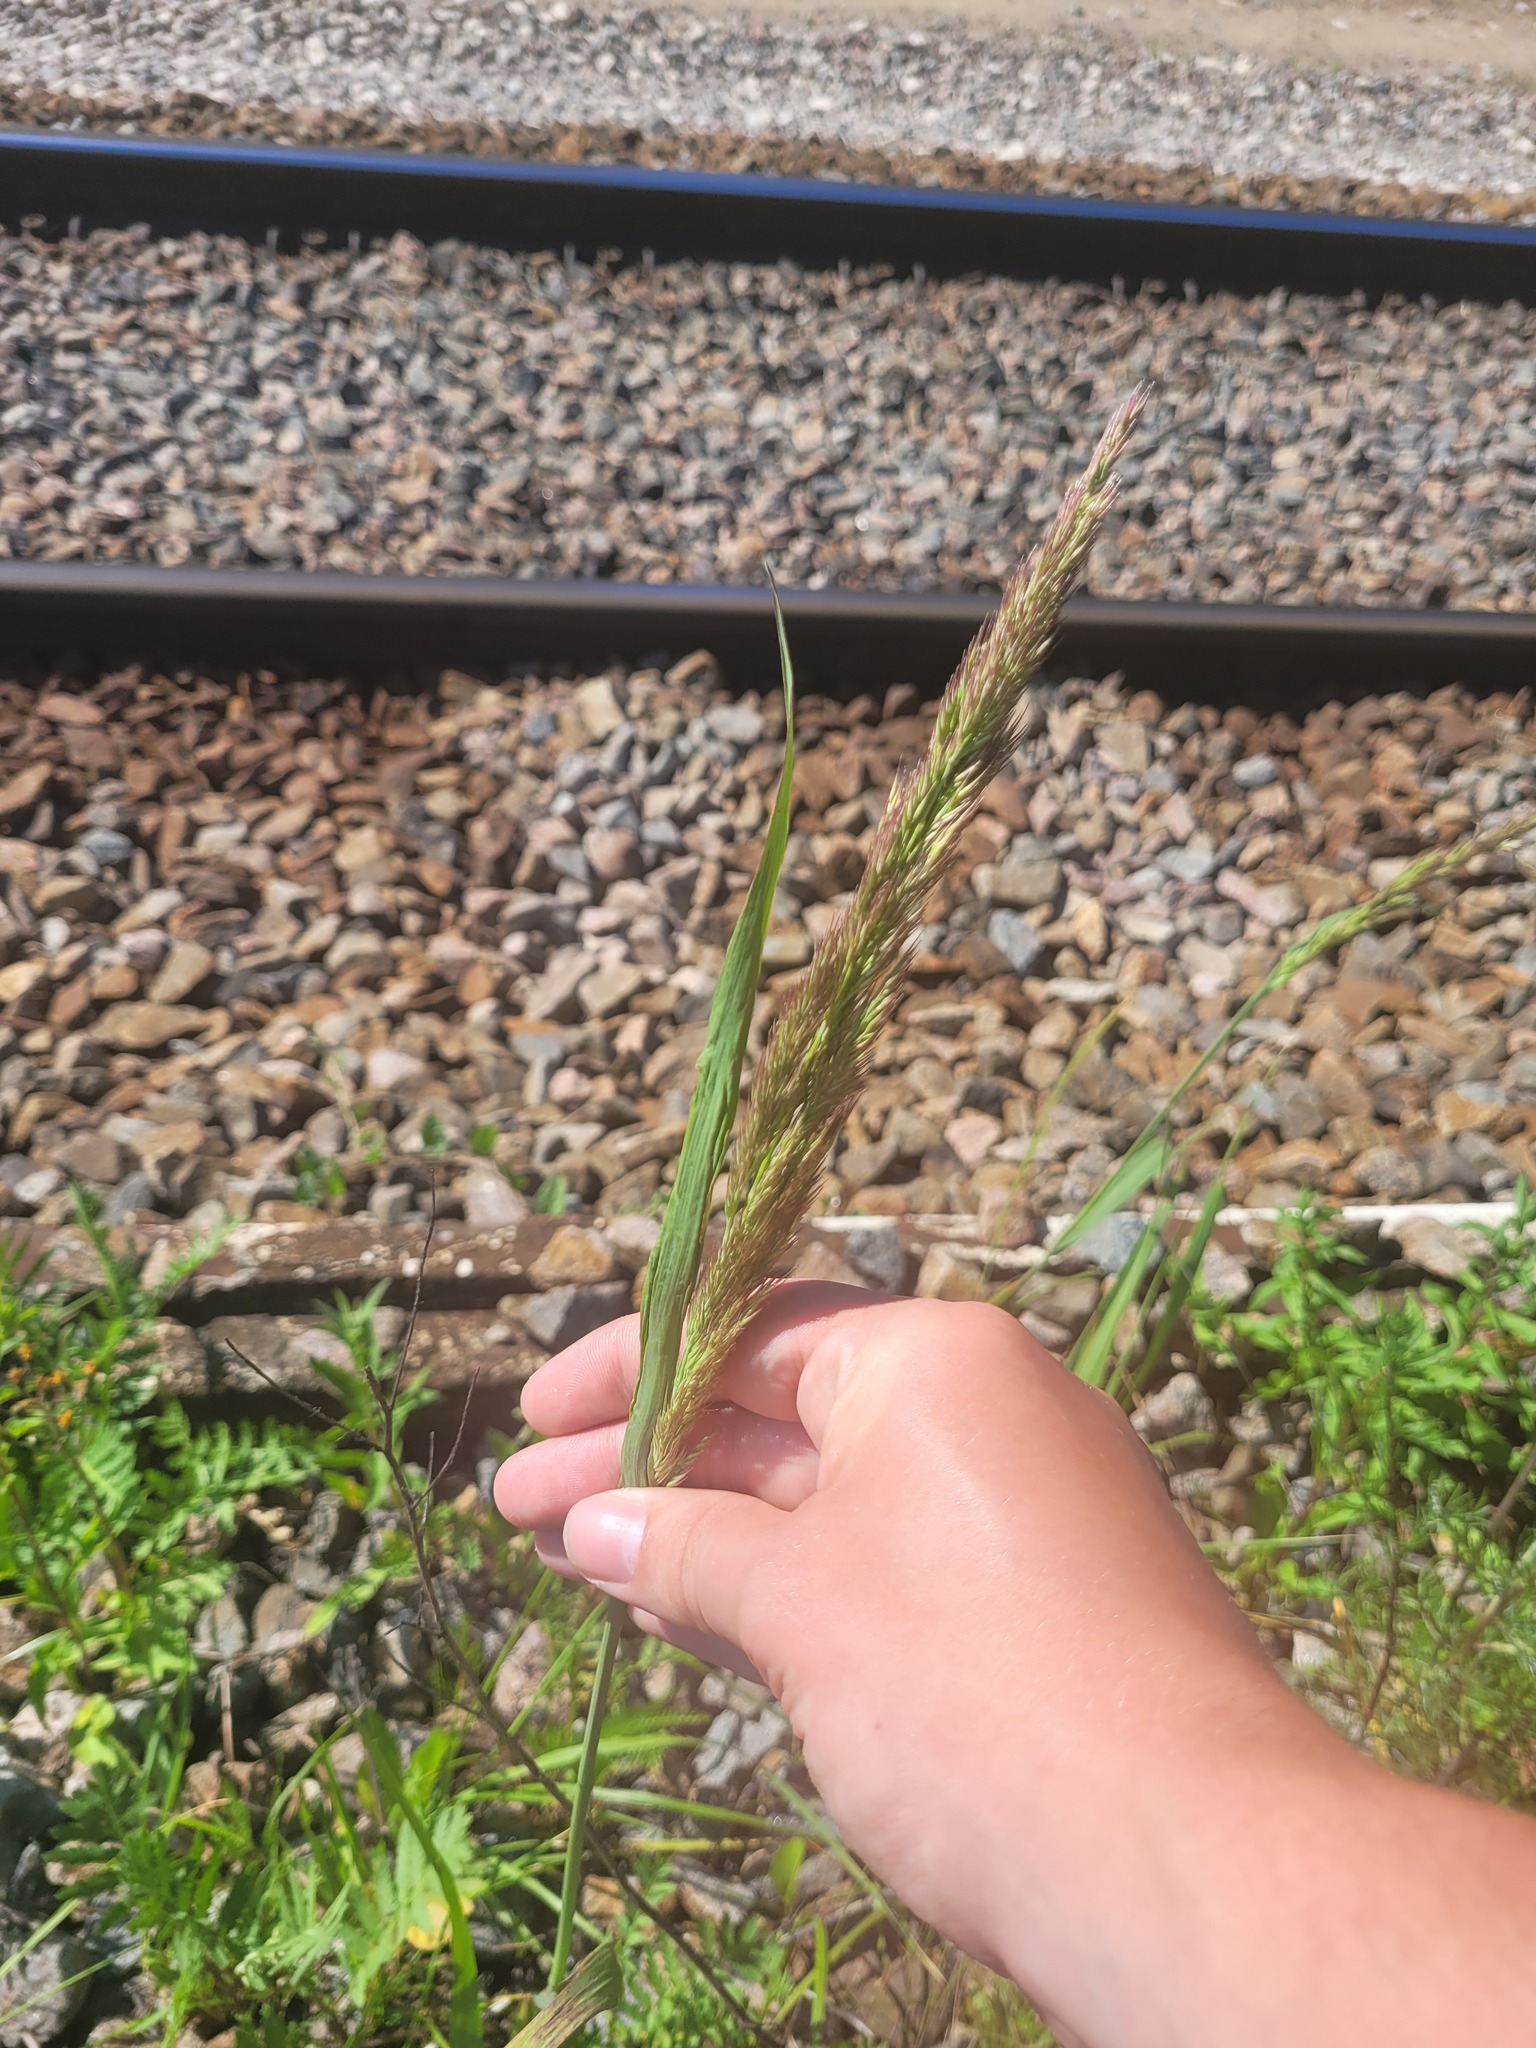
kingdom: Plantae
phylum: Tracheophyta
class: Liliopsida
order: Poales
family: Poaceae
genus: Calamagrostis
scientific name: Calamagrostis epigejos
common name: Wood small-reed
